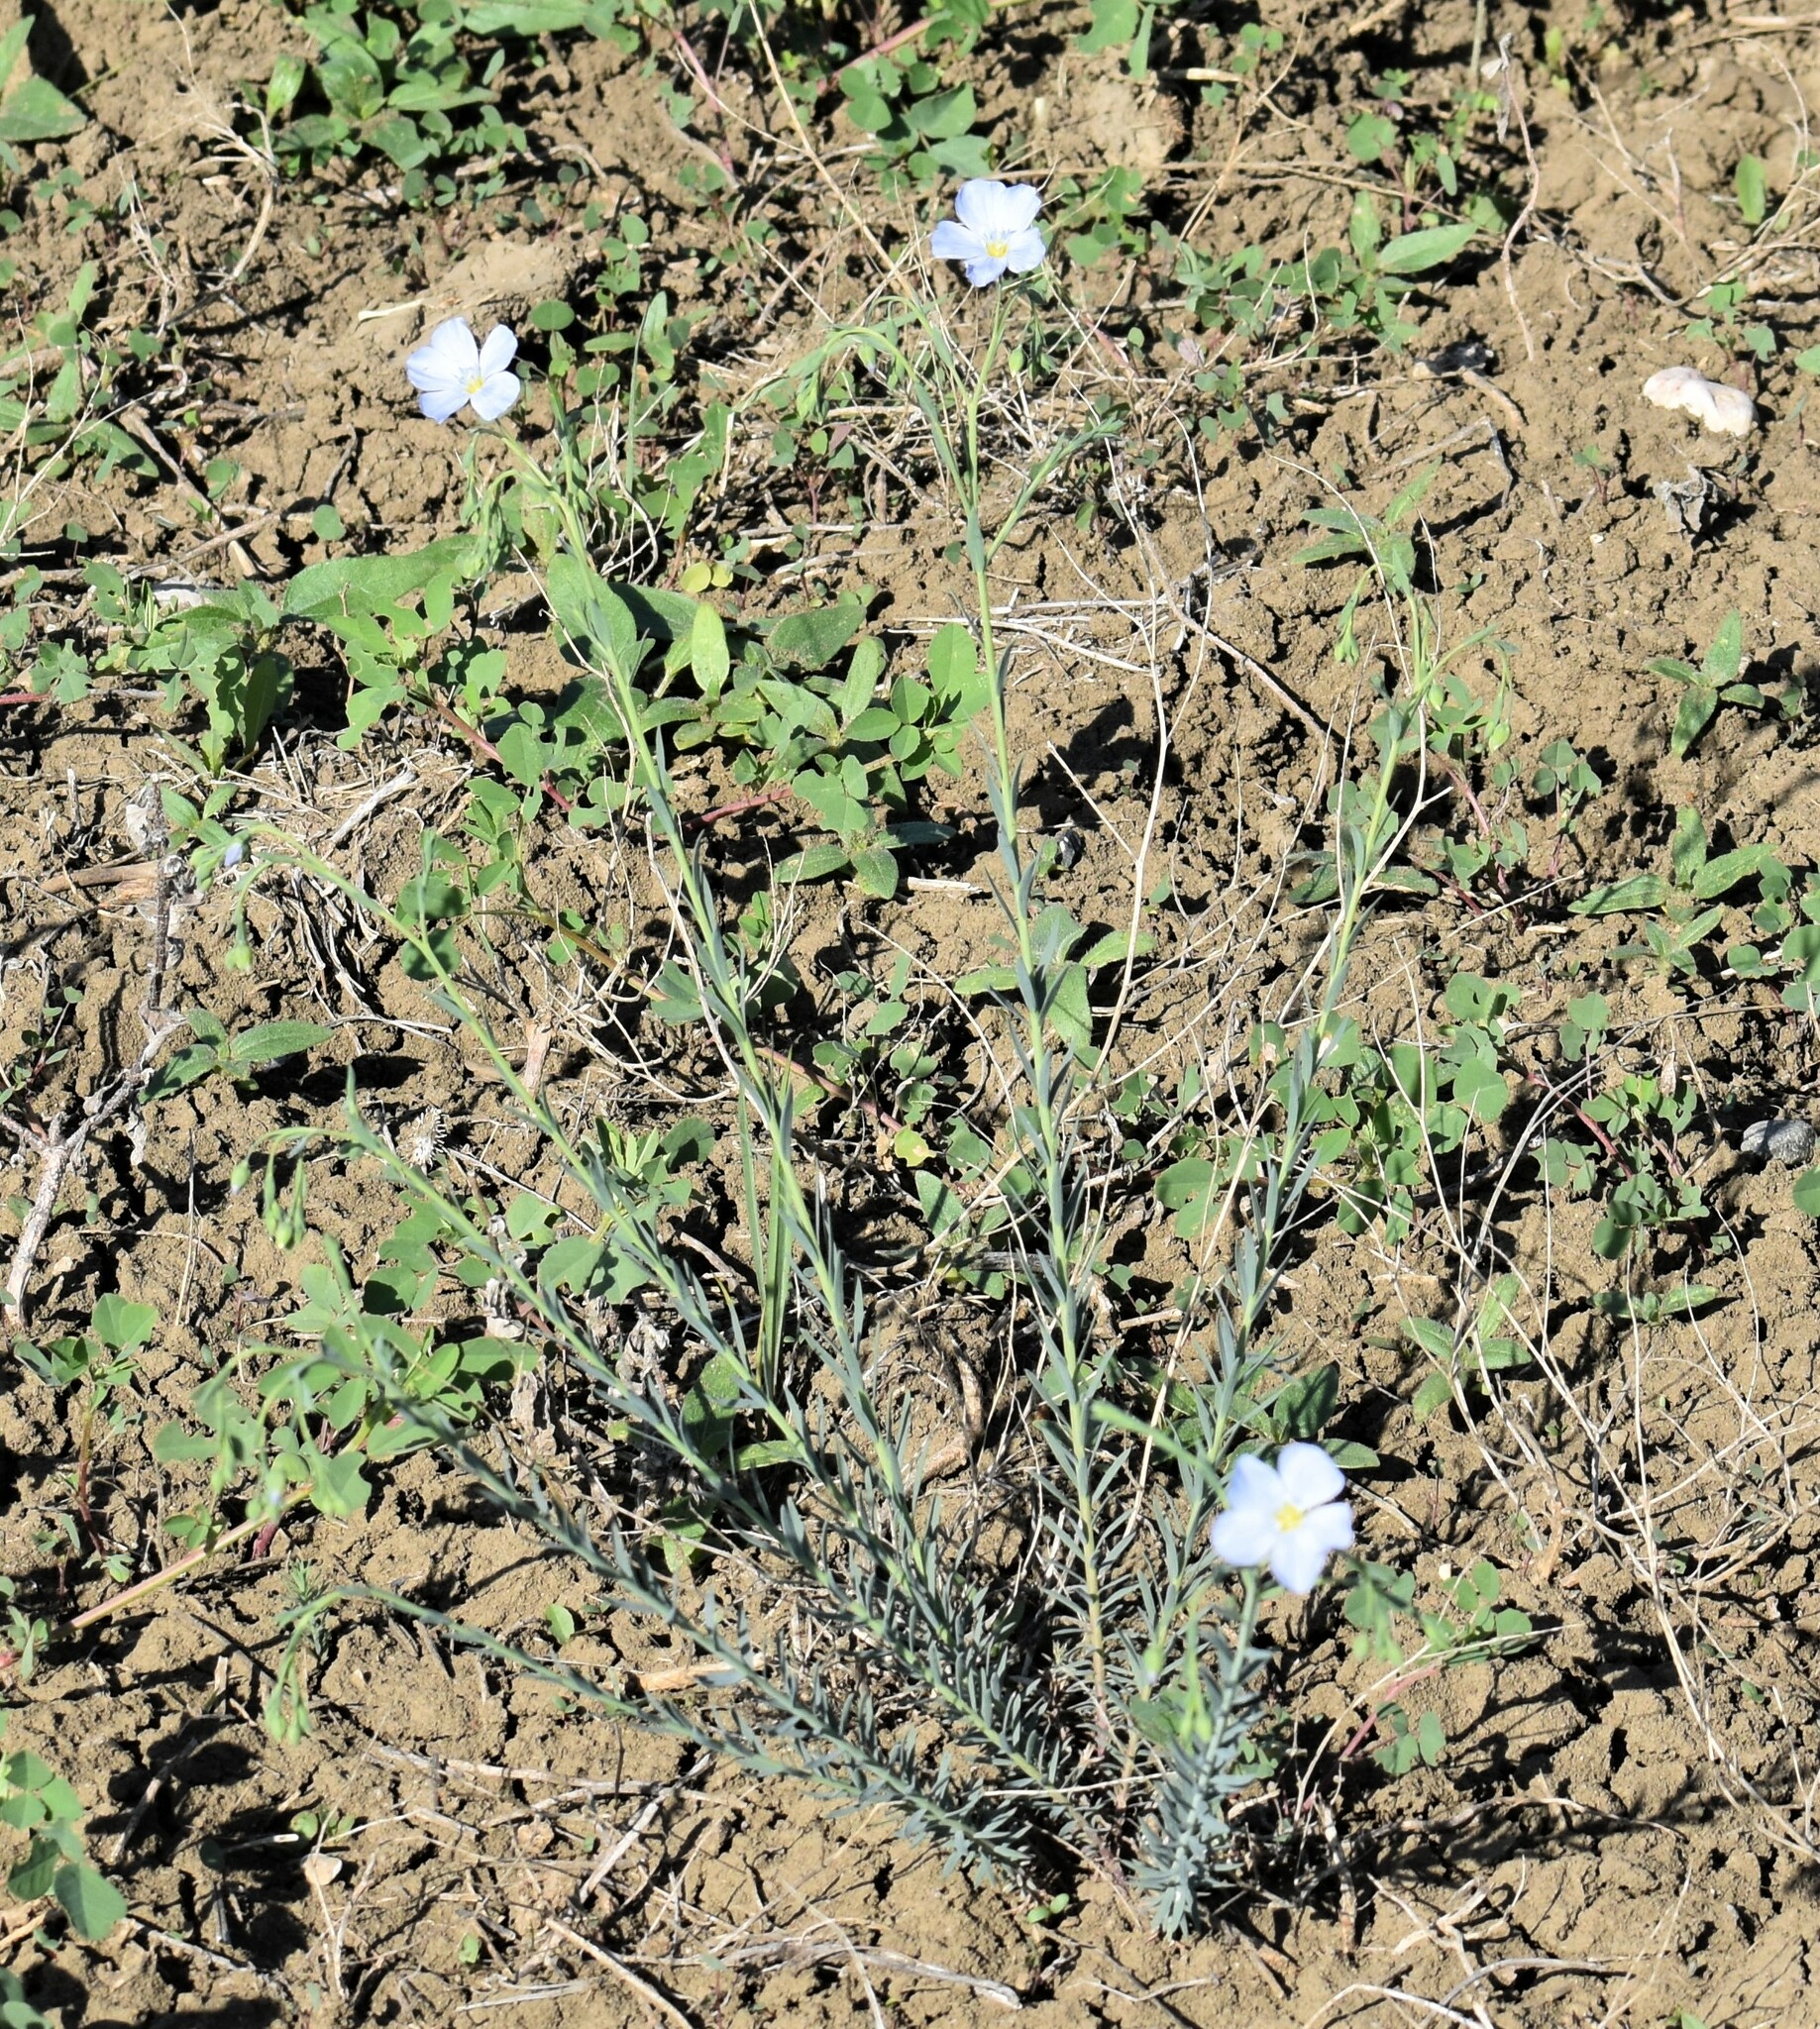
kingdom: Plantae
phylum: Tracheophyta
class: Magnoliopsida
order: Malpighiales
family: Linaceae
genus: Linum
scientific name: Linum lewisii
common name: Prairie flax
